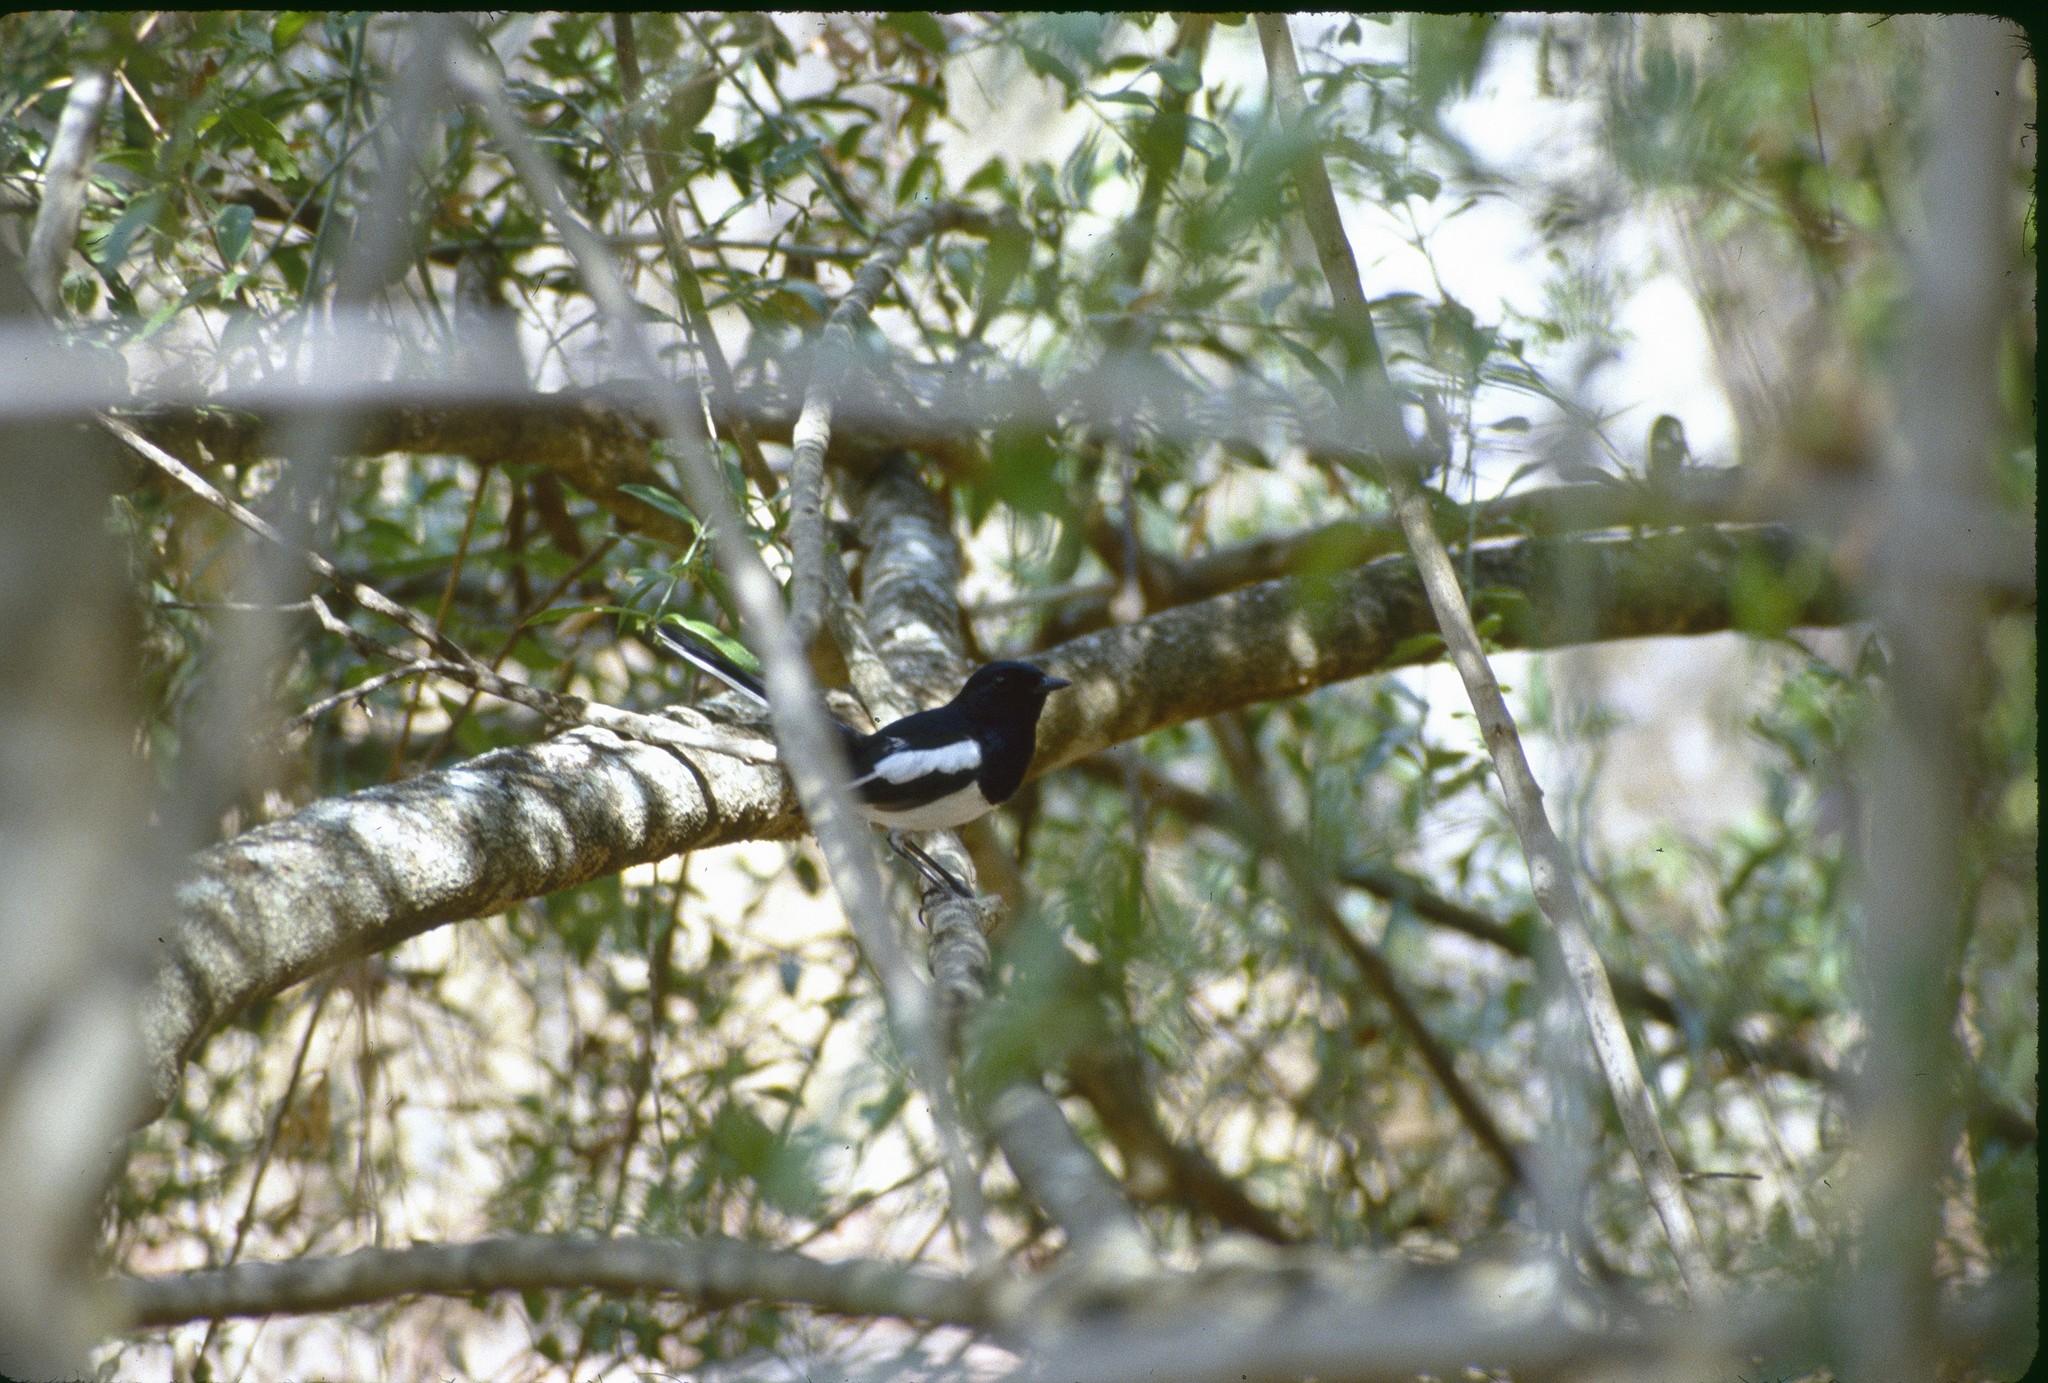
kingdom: Animalia
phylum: Chordata
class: Aves
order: Passeriformes
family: Muscicapidae
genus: Copsychus
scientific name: Copsychus albospecularis
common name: Madagascar magpie-robin
